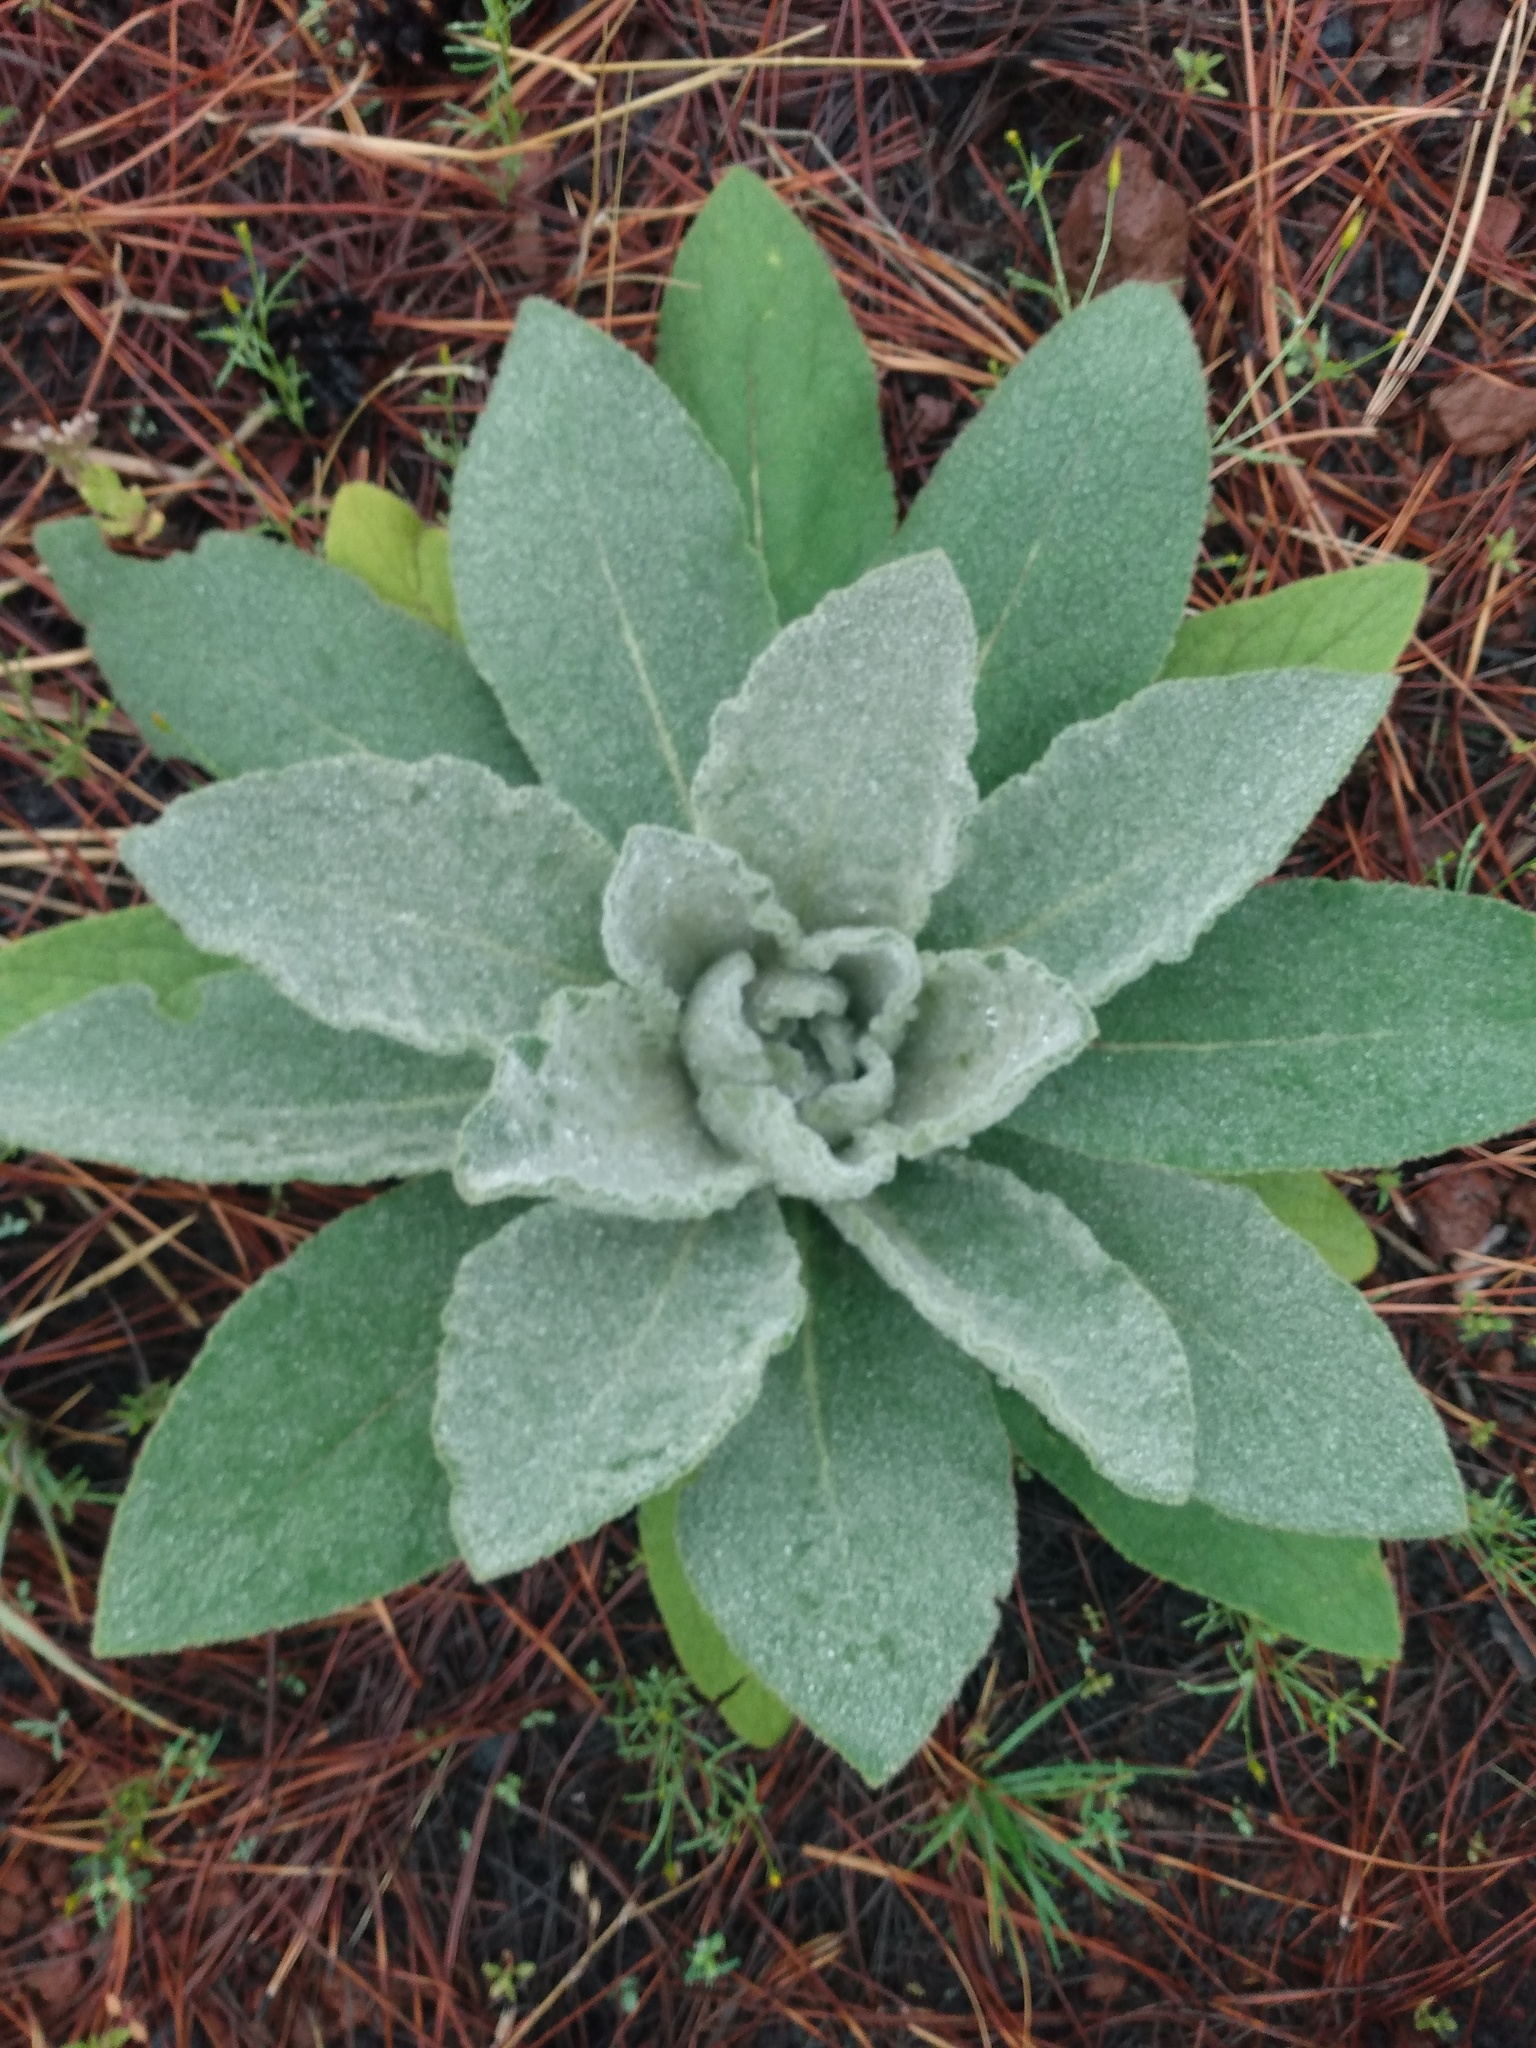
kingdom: Plantae
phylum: Tracheophyta
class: Magnoliopsida
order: Lamiales
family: Scrophulariaceae
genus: Verbascum
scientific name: Verbascum thapsus
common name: Common mullein
